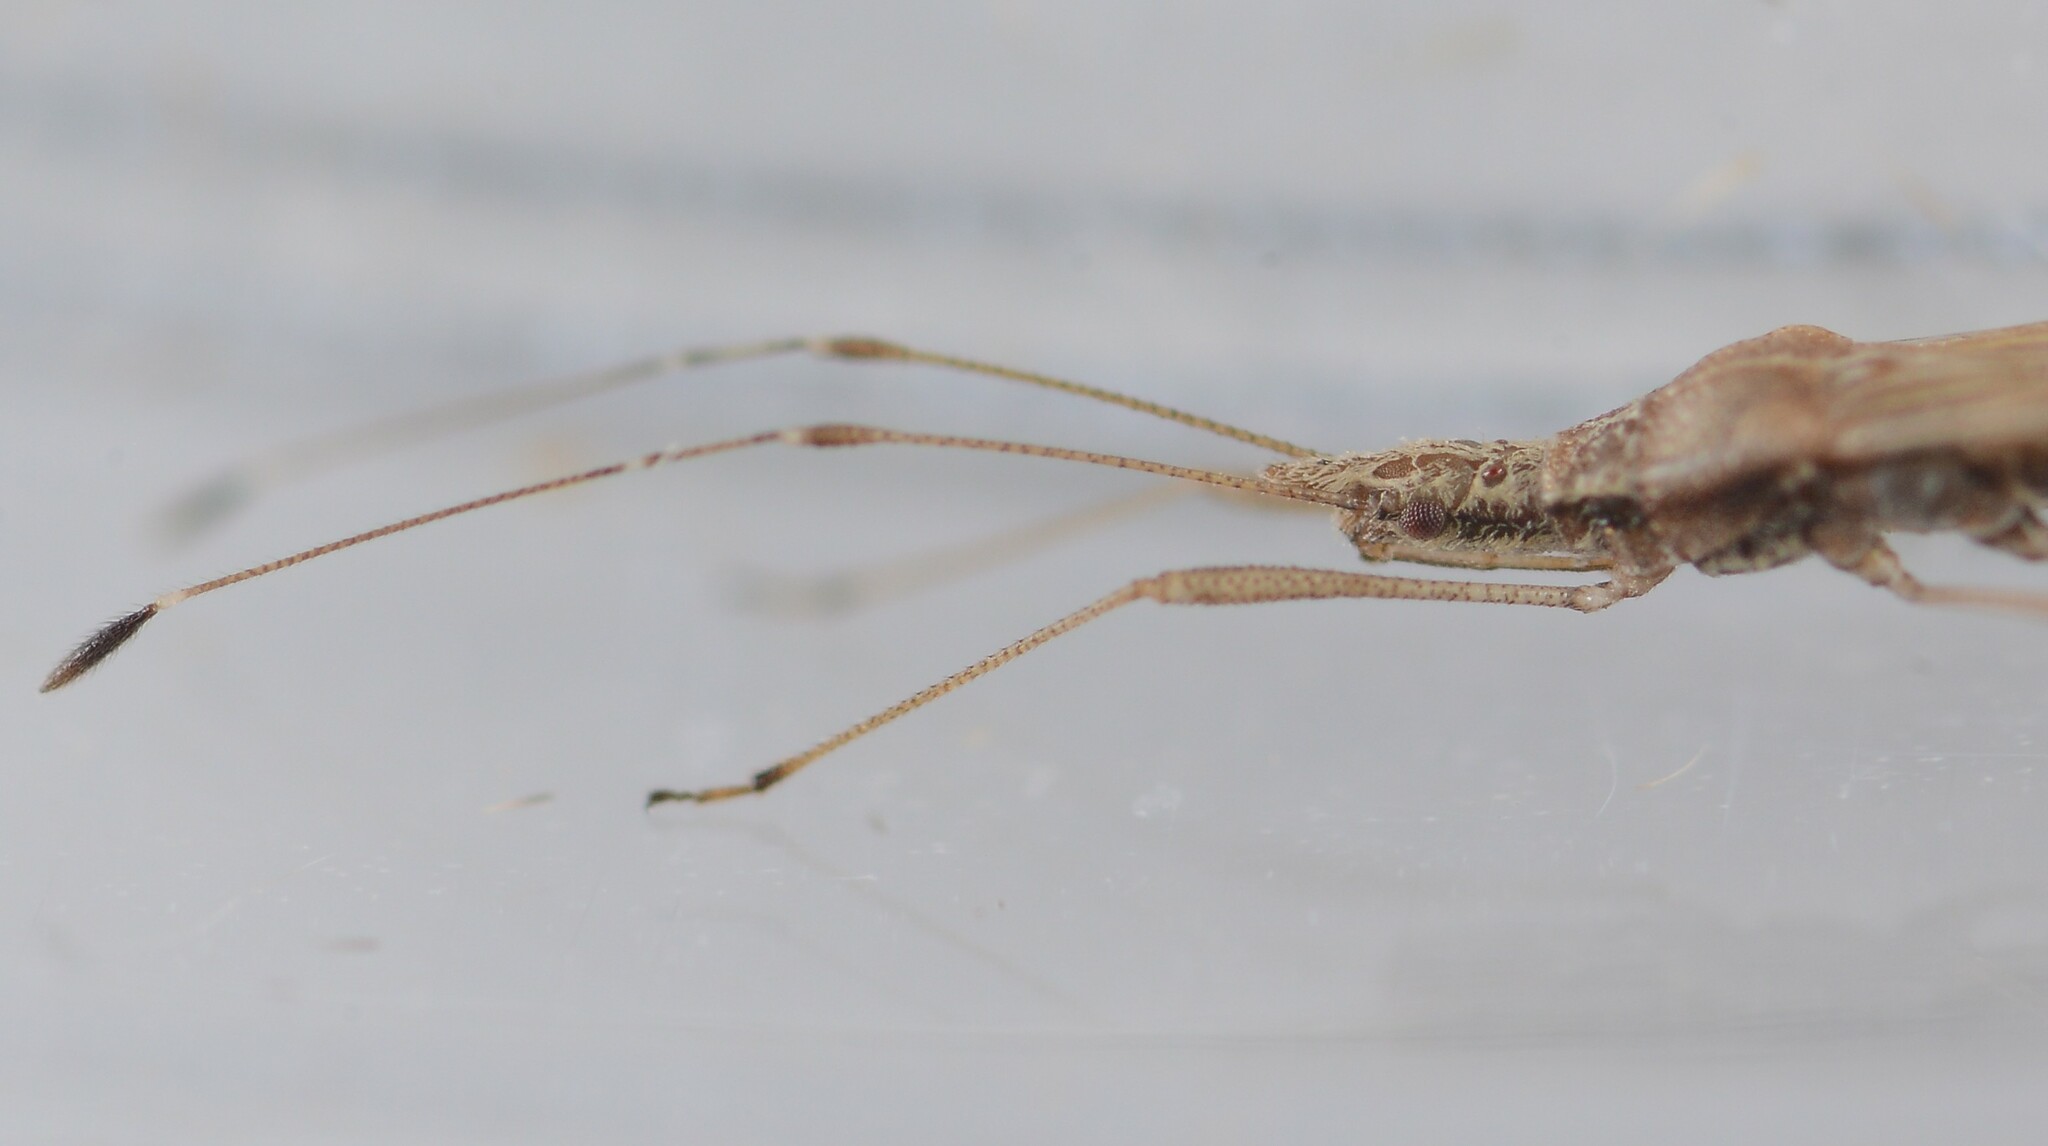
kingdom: Animalia
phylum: Arthropoda
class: Insecta
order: Hemiptera
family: Berytidae
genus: Bezu
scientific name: Bezu wakefieldi
